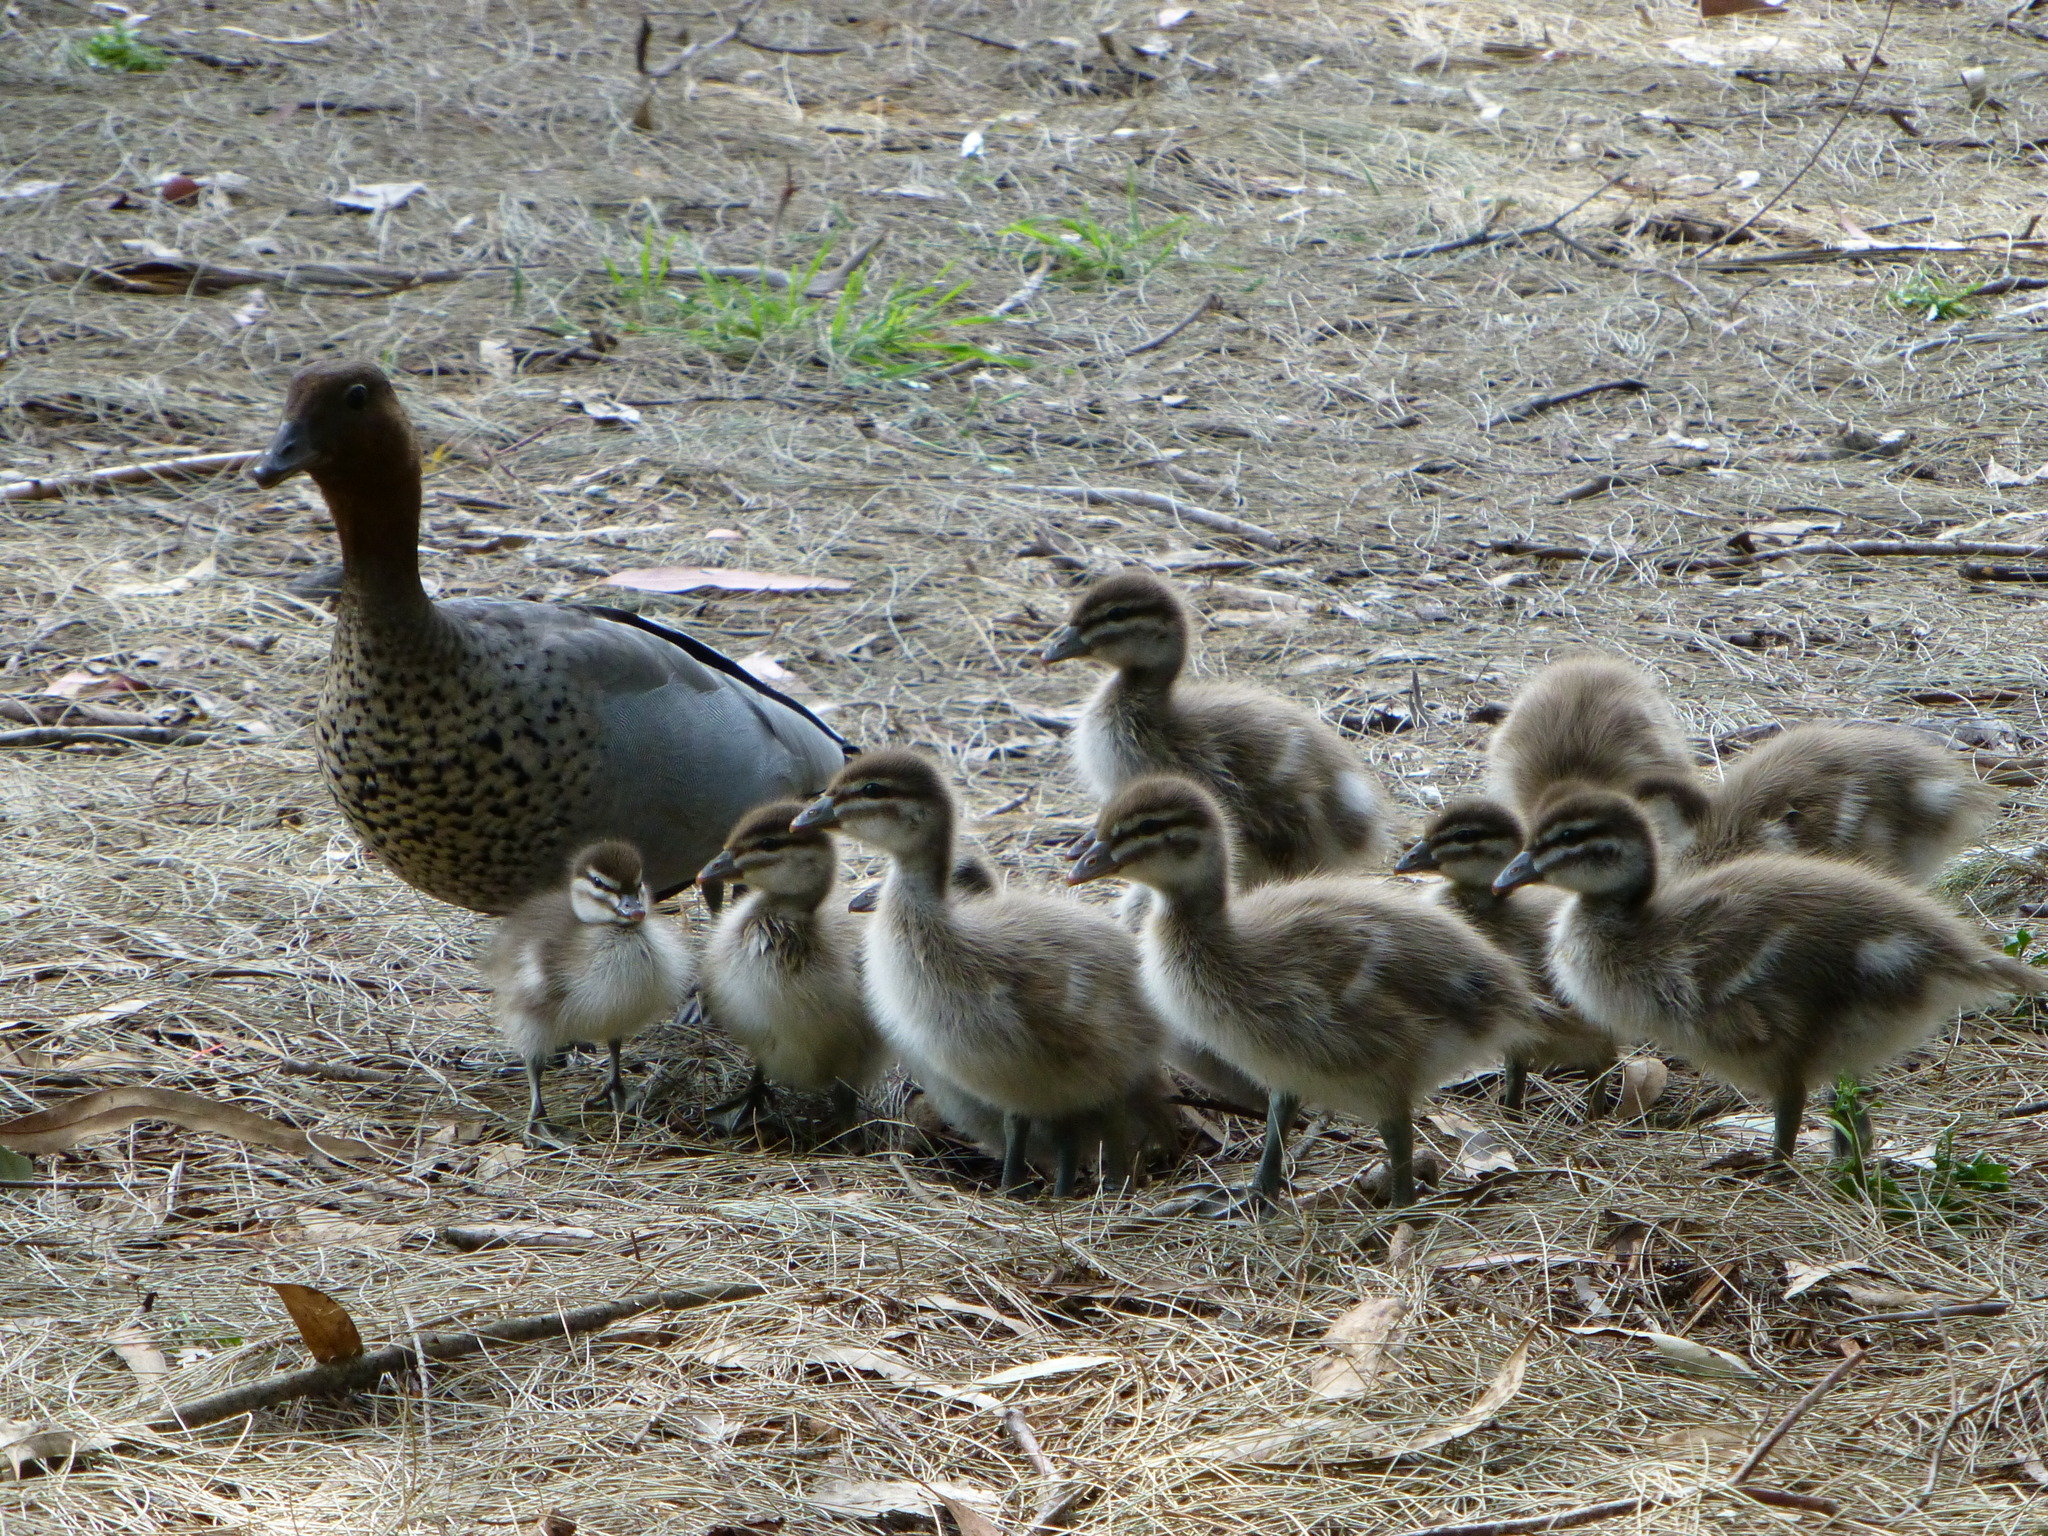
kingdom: Animalia
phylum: Chordata
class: Aves
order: Anseriformes
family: Anatidae
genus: Chenonetta
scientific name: Chenonetta jubata
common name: Maned duck
